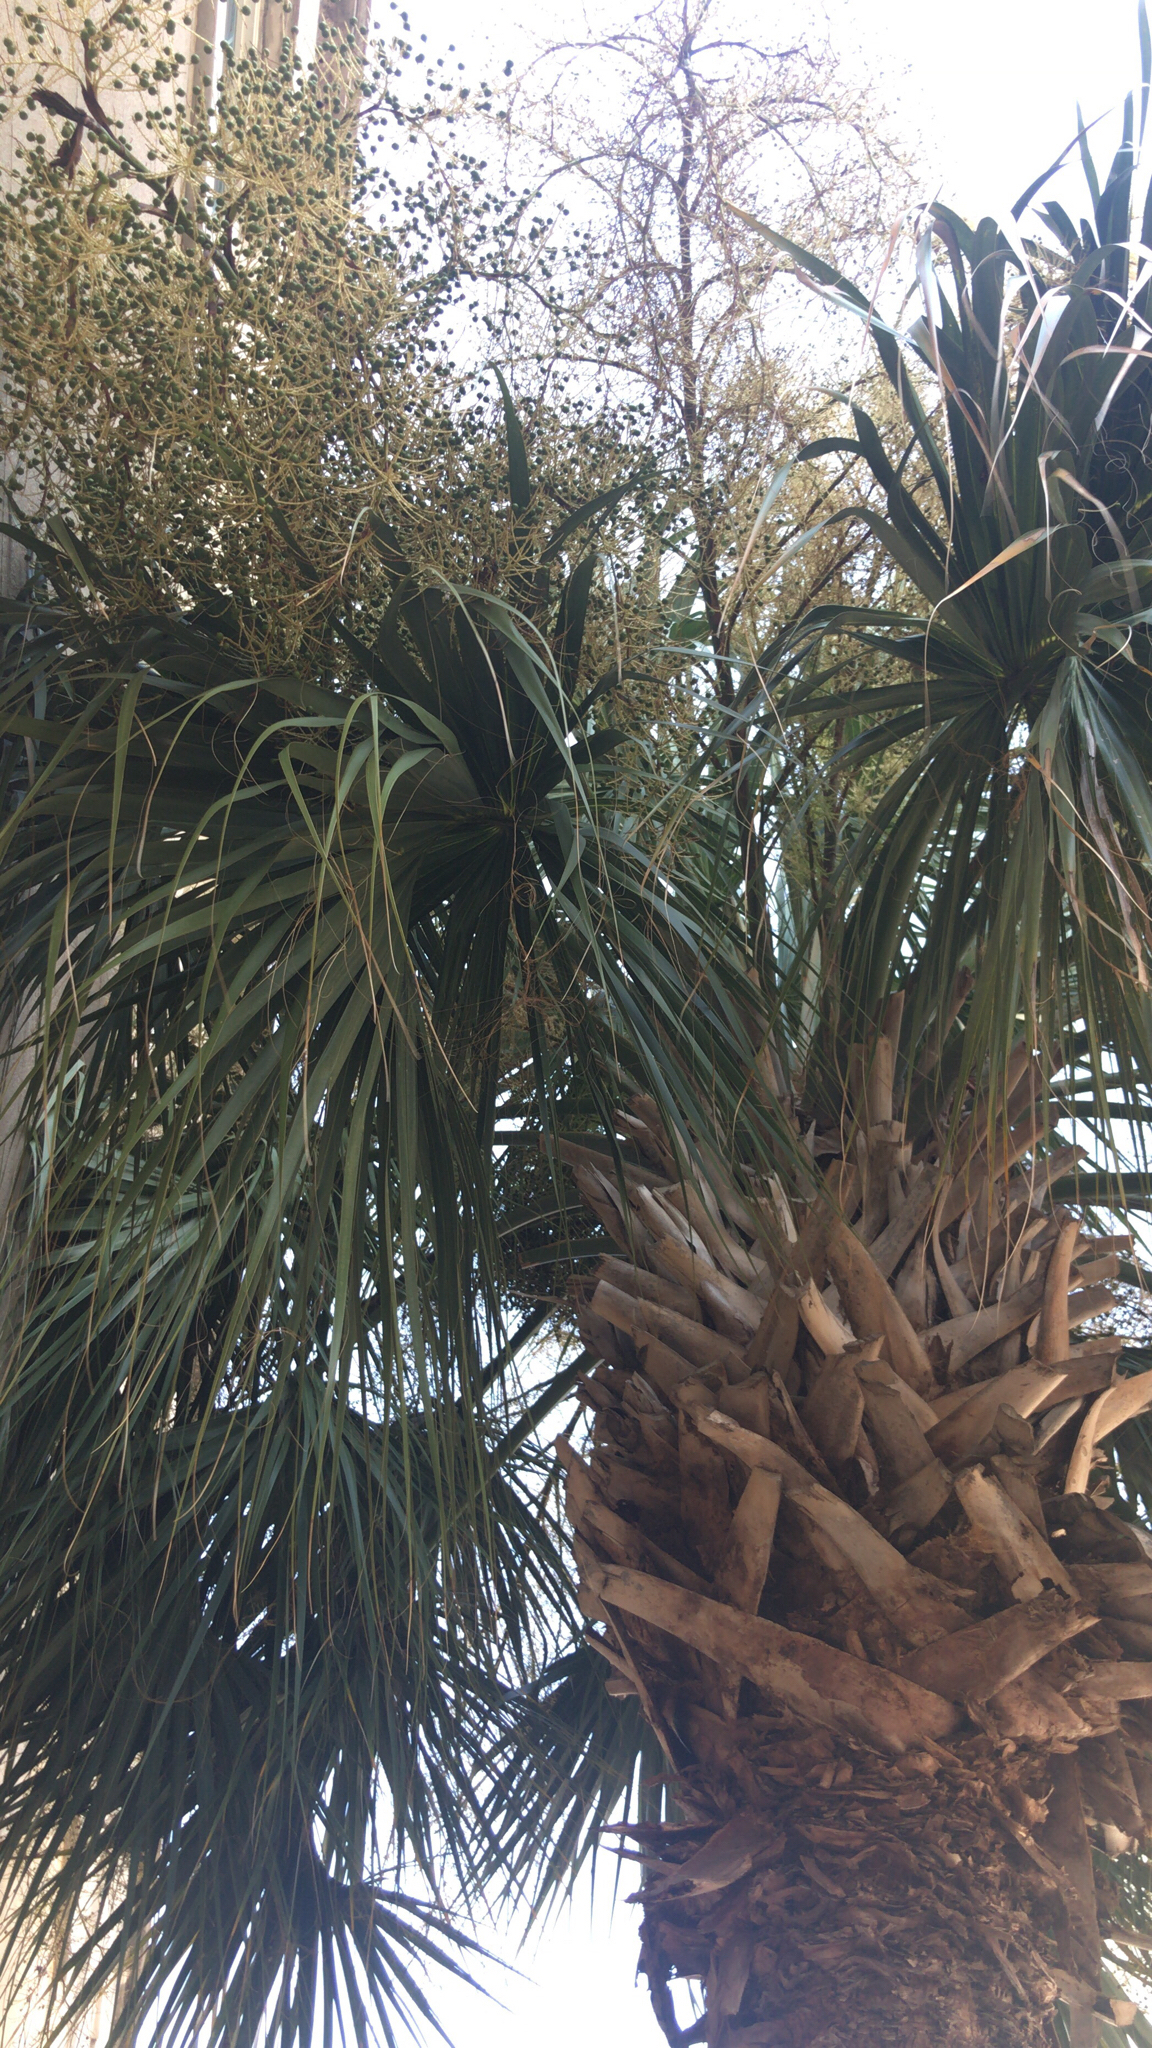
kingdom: Plantae
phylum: Tracheophyta
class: Liliopsida
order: Arecales
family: Arecaceae
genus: Sabal
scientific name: Sabal palmetto
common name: Blue palmetto
